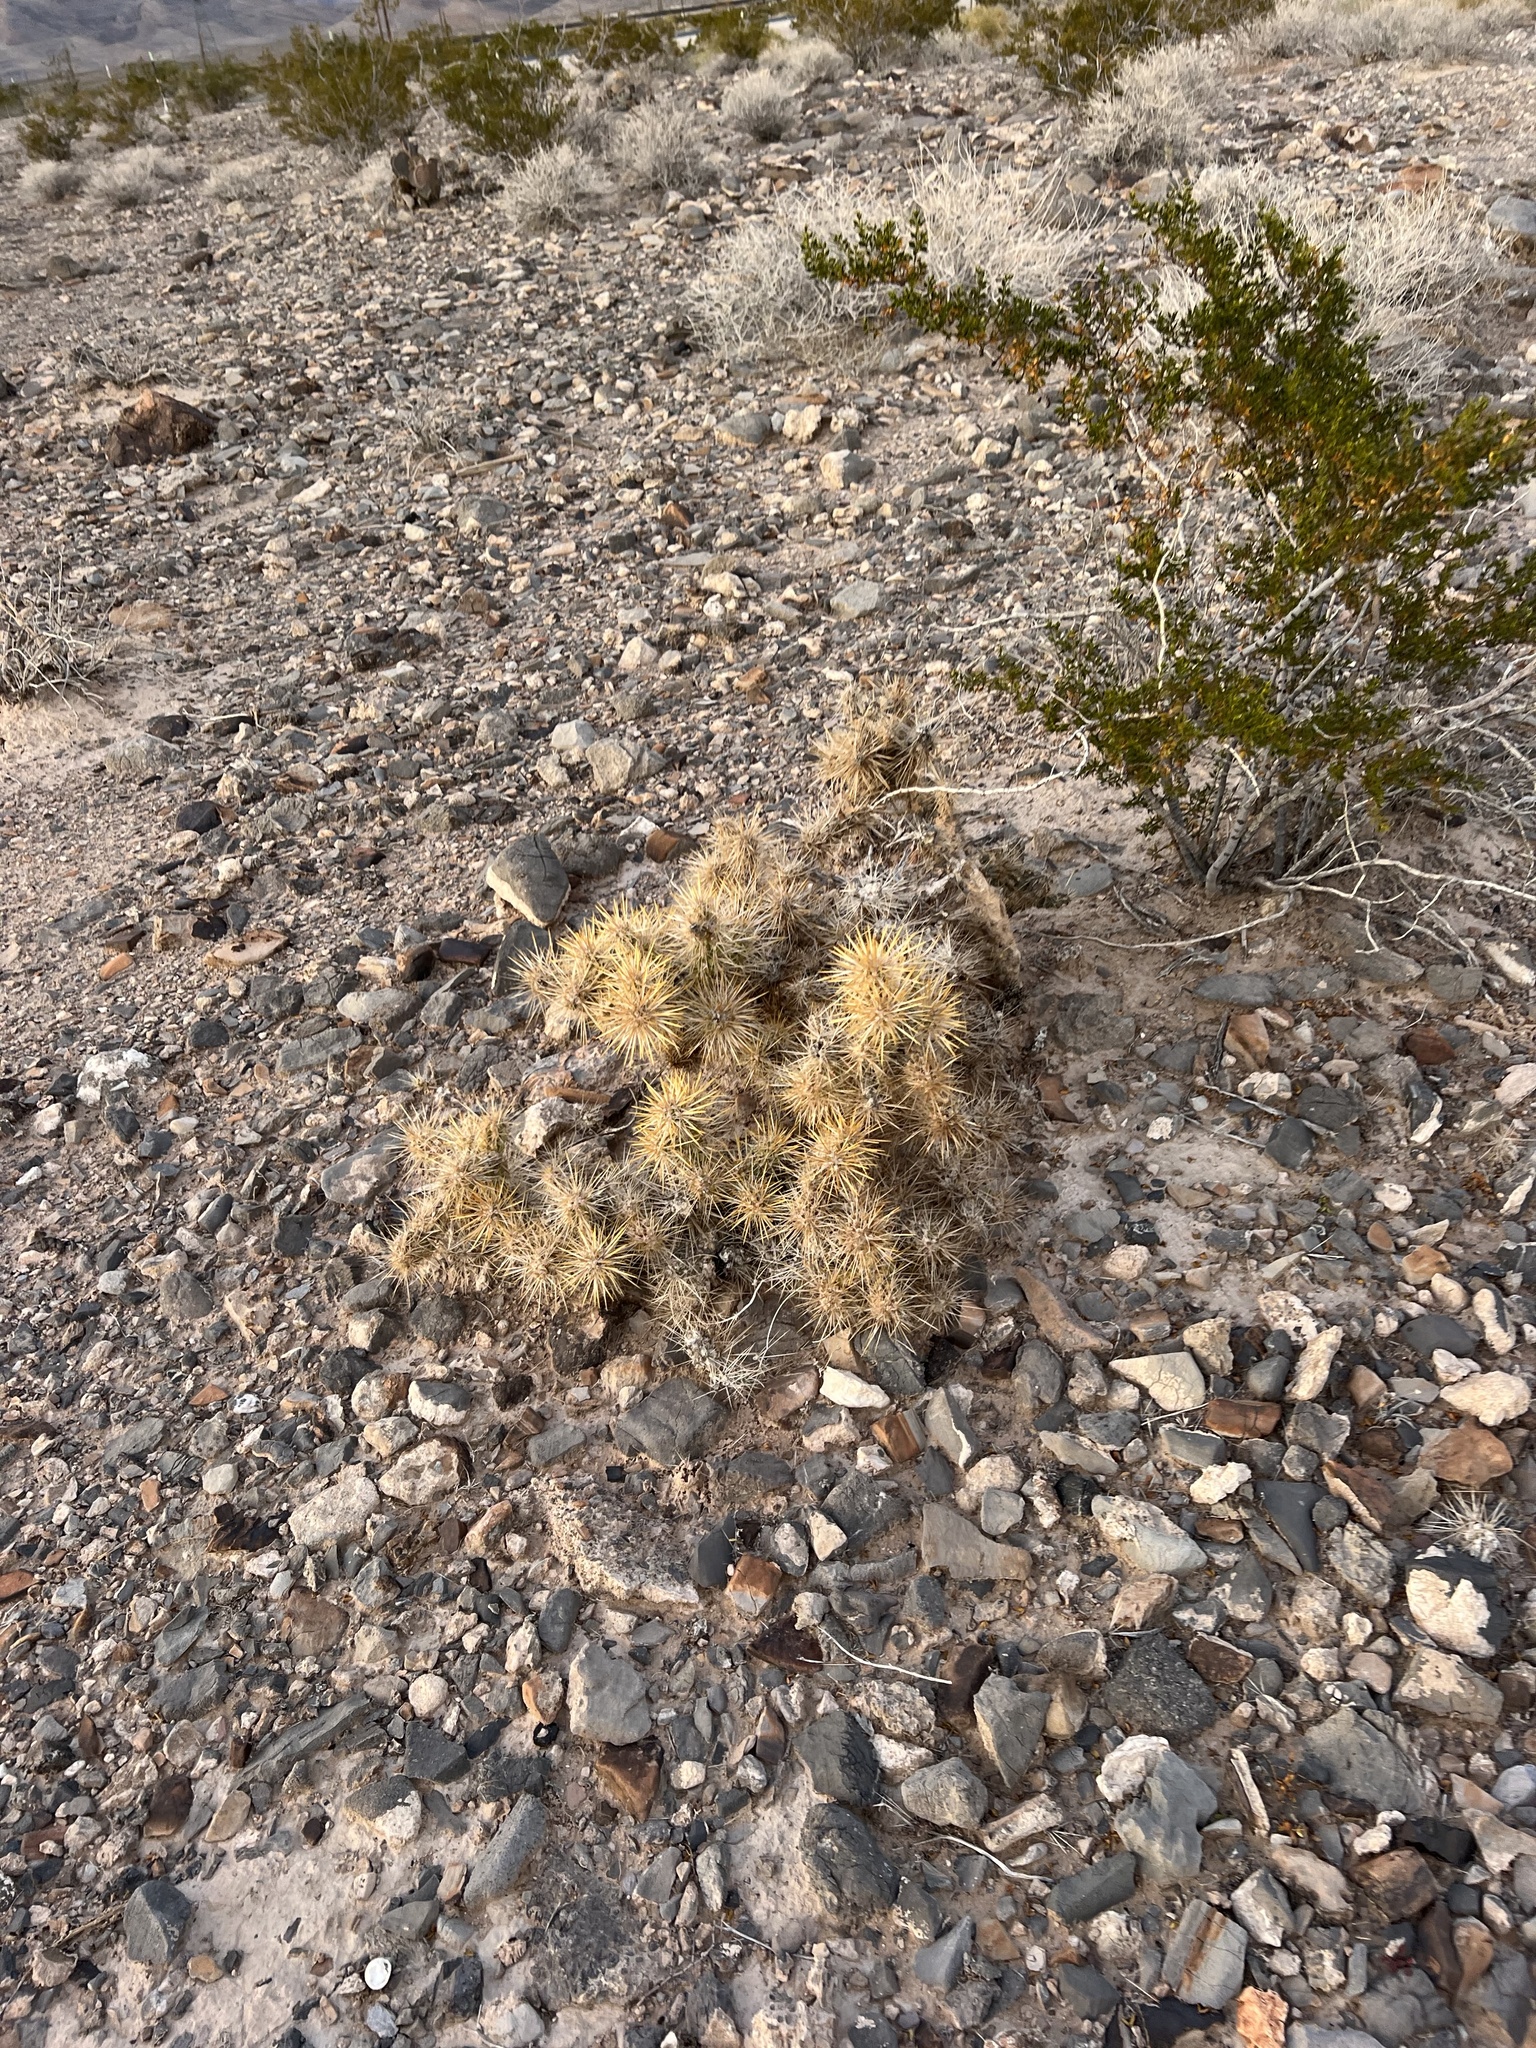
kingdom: Plantae
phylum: Tracheophyta
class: Magnoliopsida
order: Caryophyllales
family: Cactaceae
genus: Cylindropuntia
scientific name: Cylindropuntia echinocarpa
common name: Ground cholla
